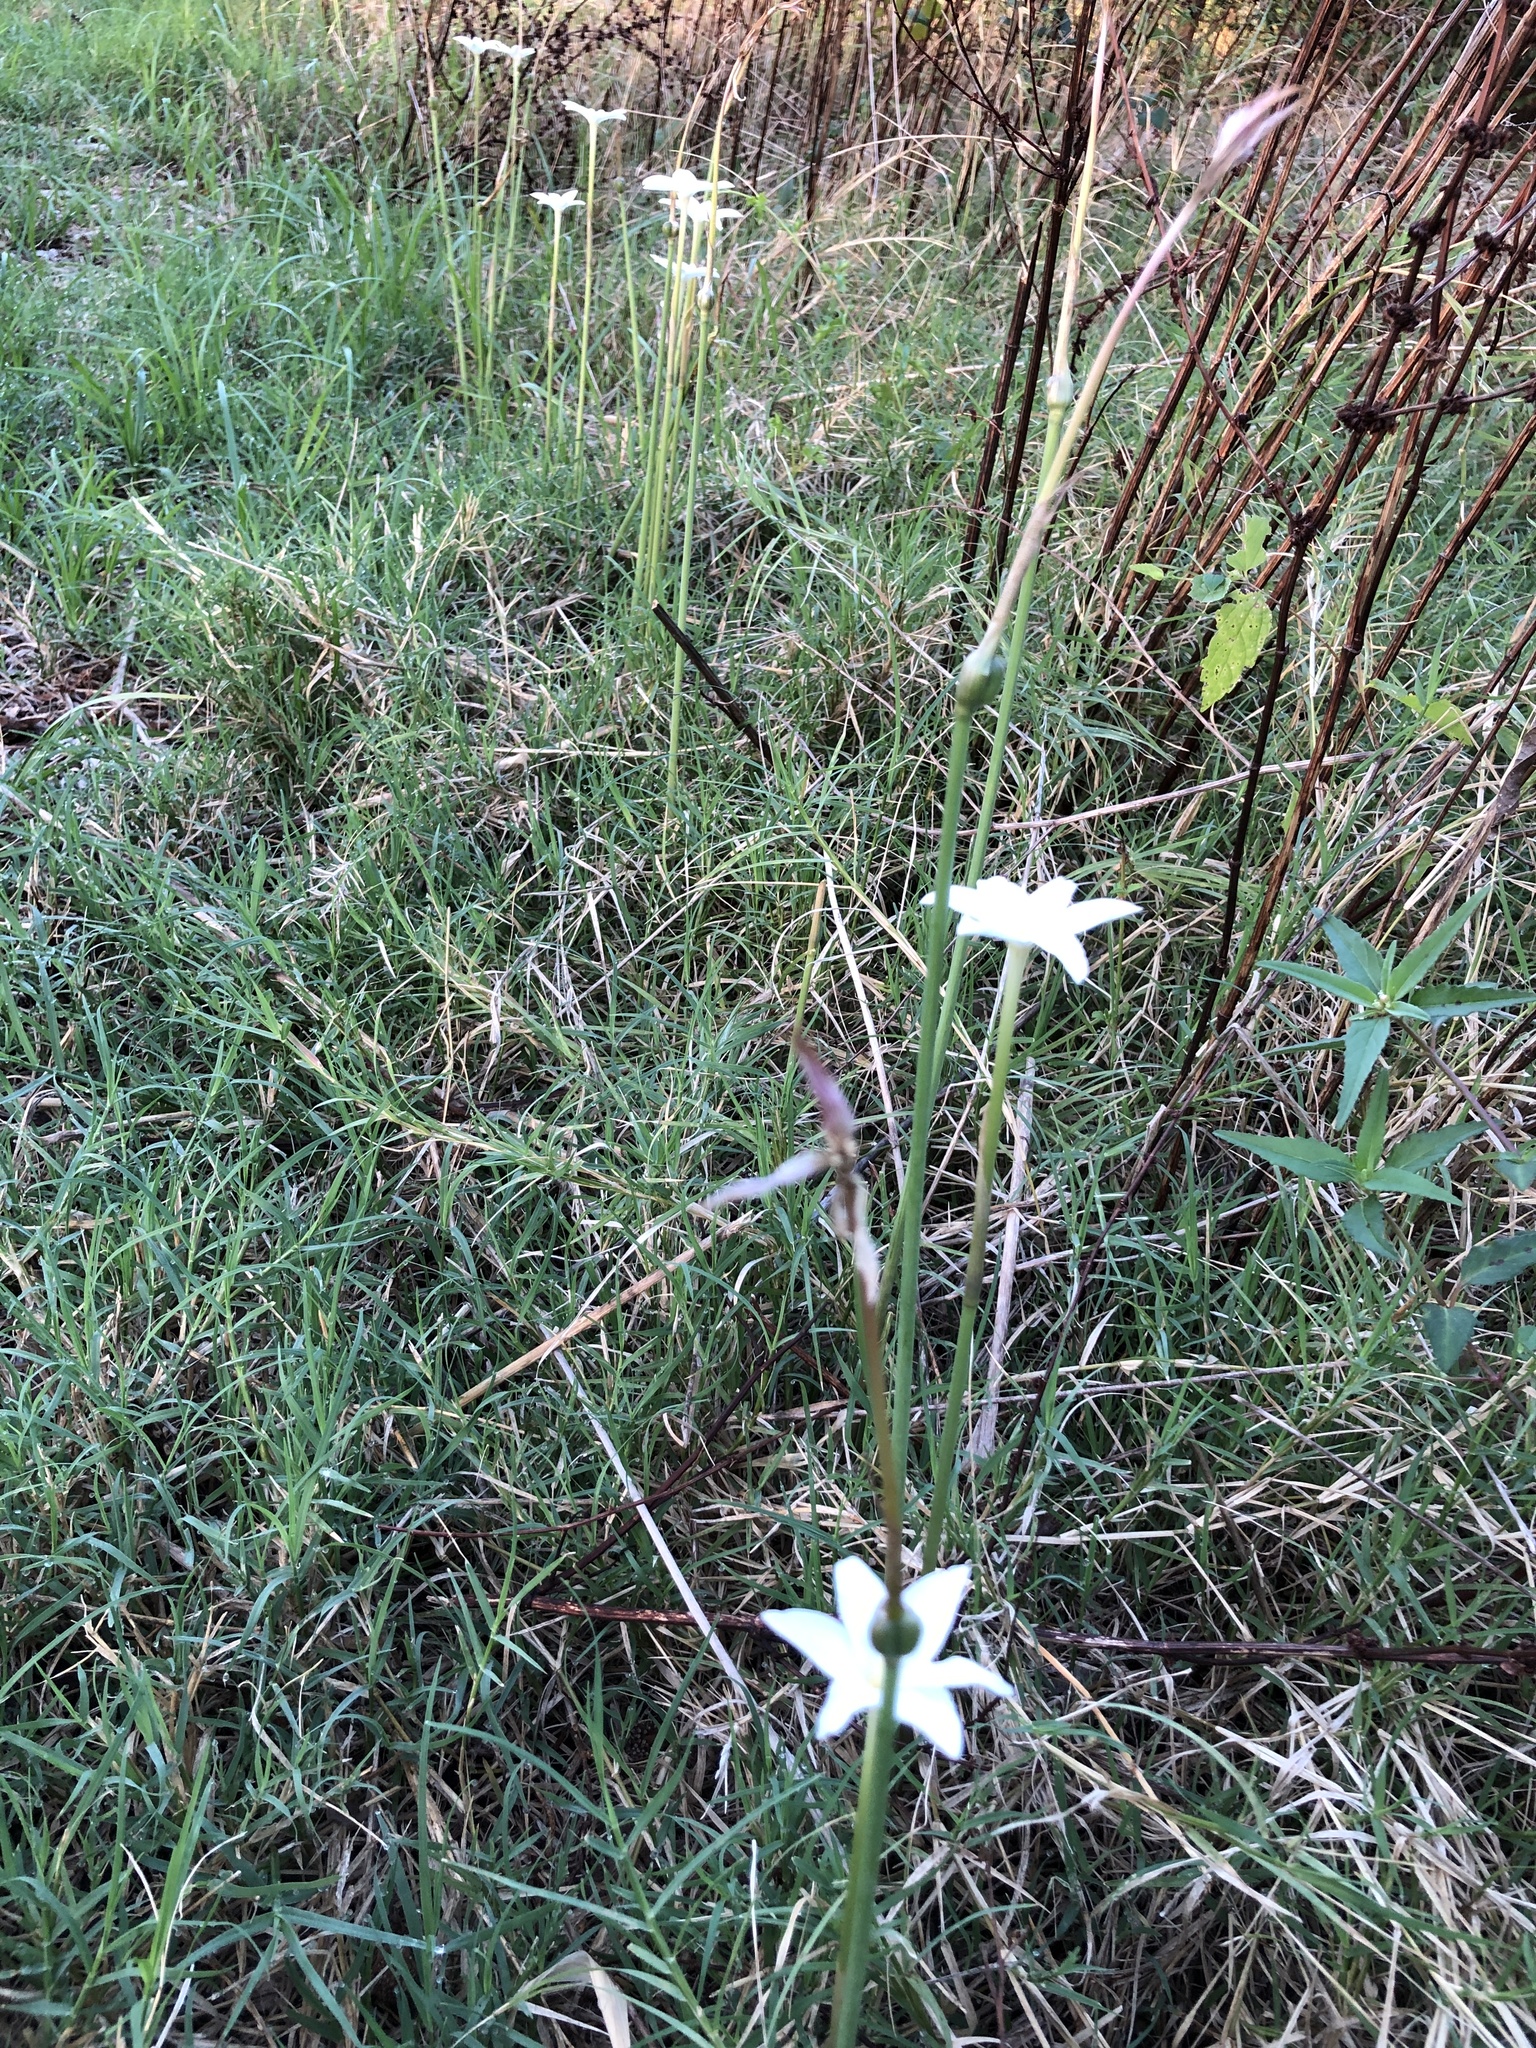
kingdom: Plantae
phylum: Tracheophyta
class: Liliopsida
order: Asparagales
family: Amaryllidaceae
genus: Zephyranthes
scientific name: Zephyranthes chlorosolen
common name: Evening rain-lily
